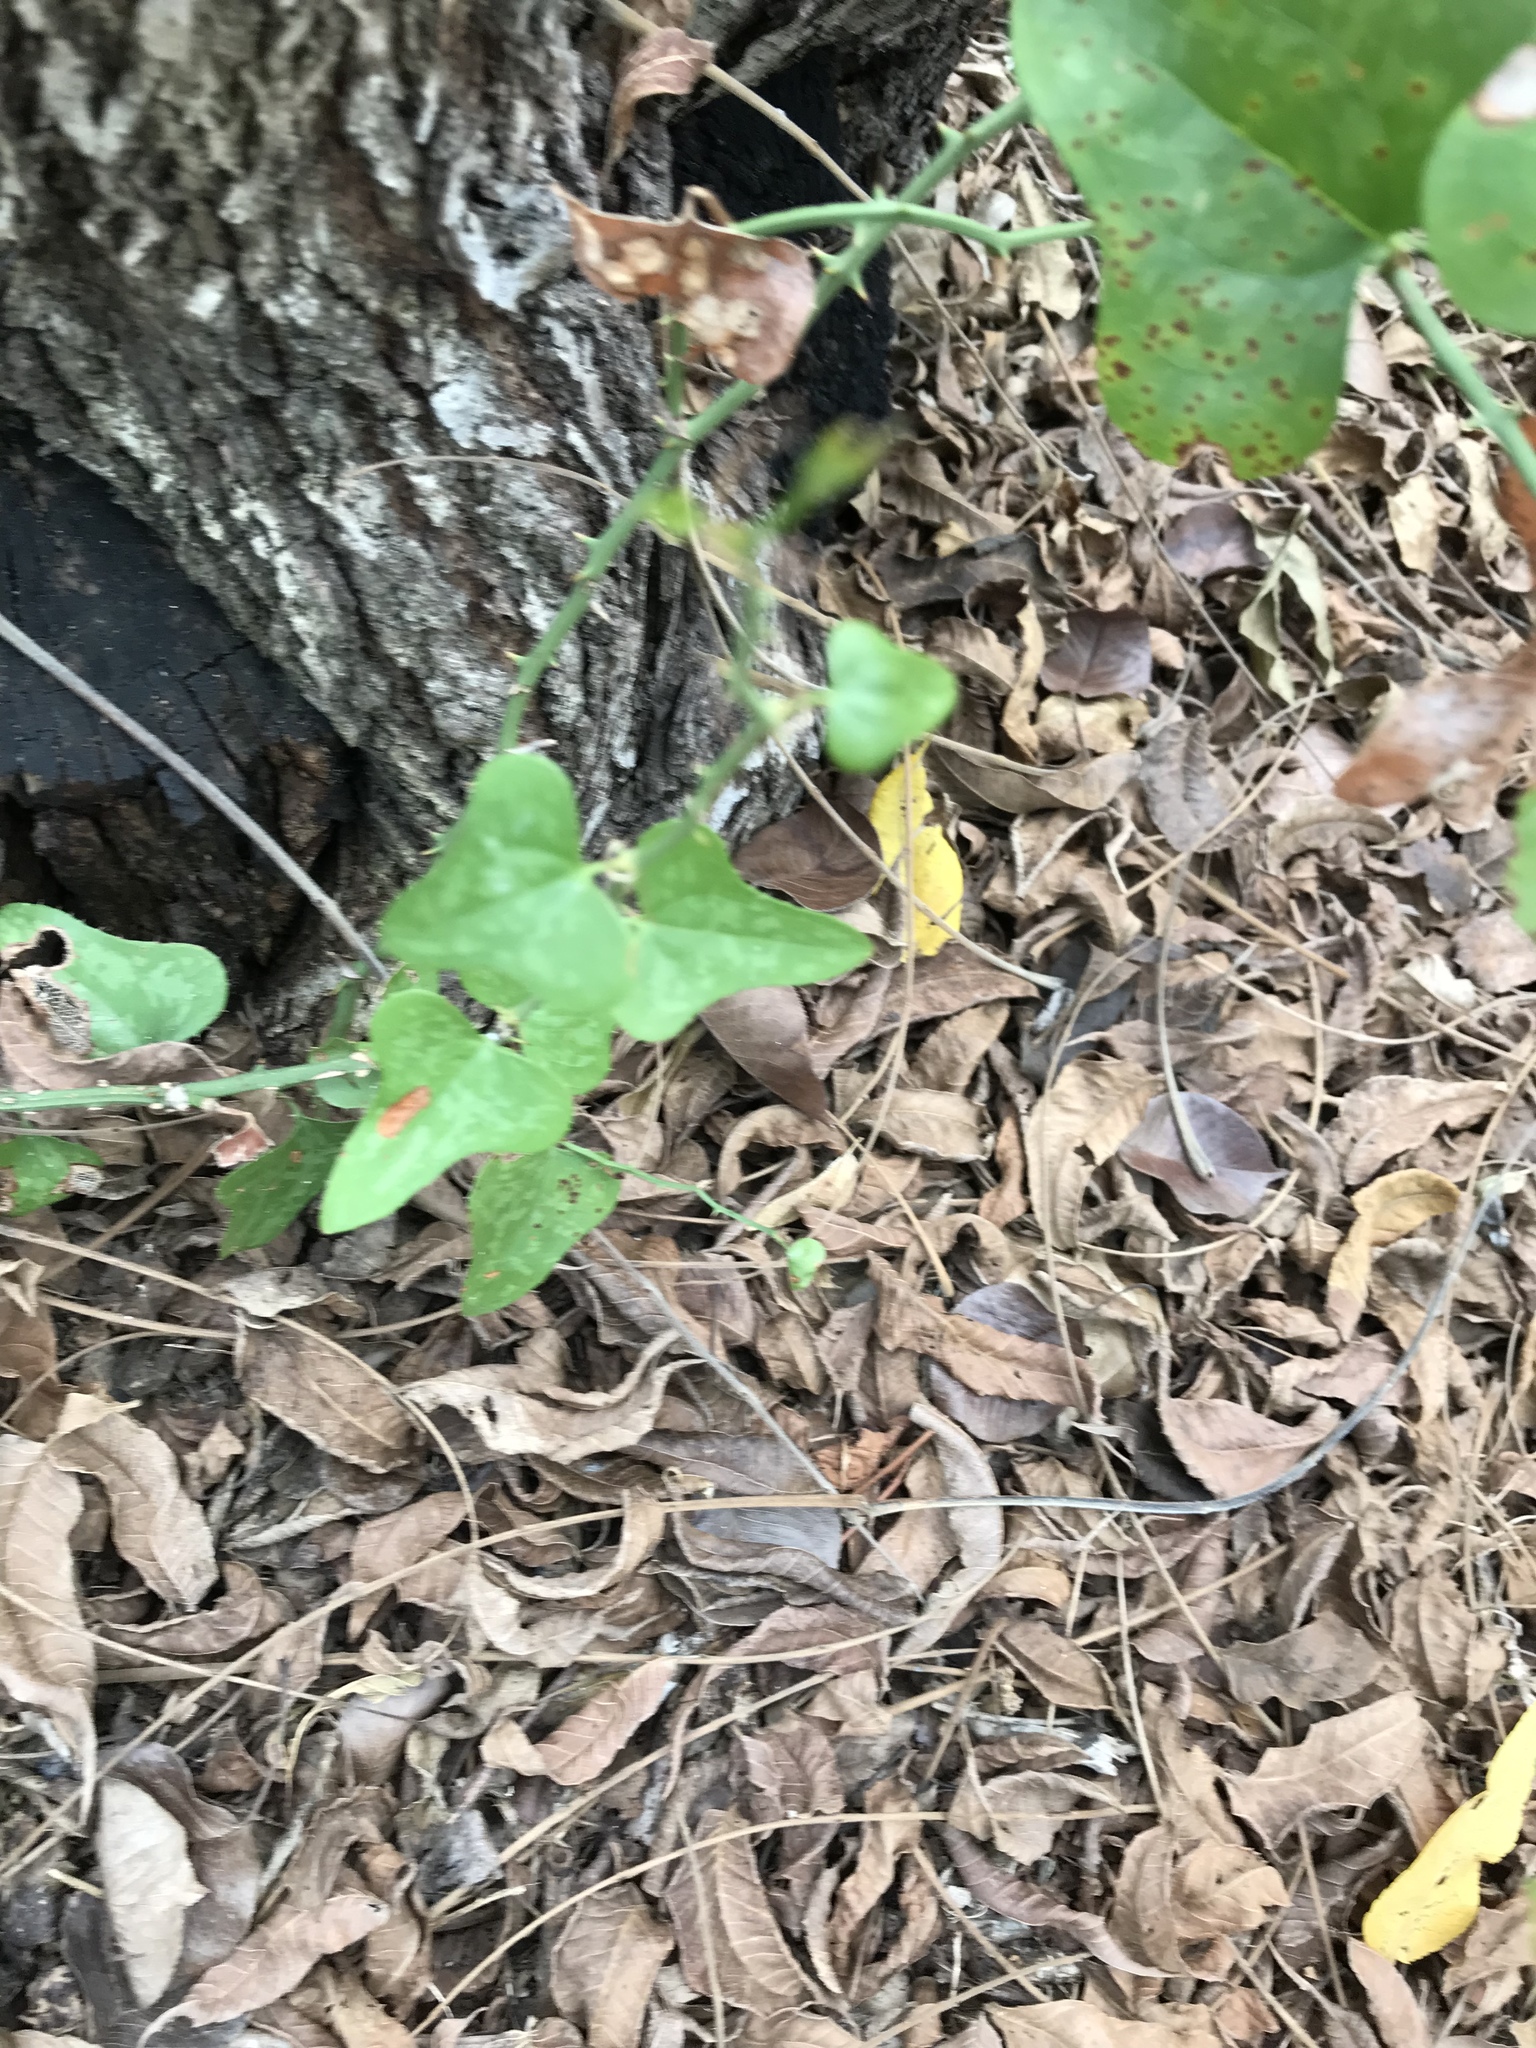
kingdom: Plantae
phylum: Tracheophyta
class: Liliopsida
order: Liliales
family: Smilacaceae
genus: Smilax
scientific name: Smilax bona-nox
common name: Catbrier
